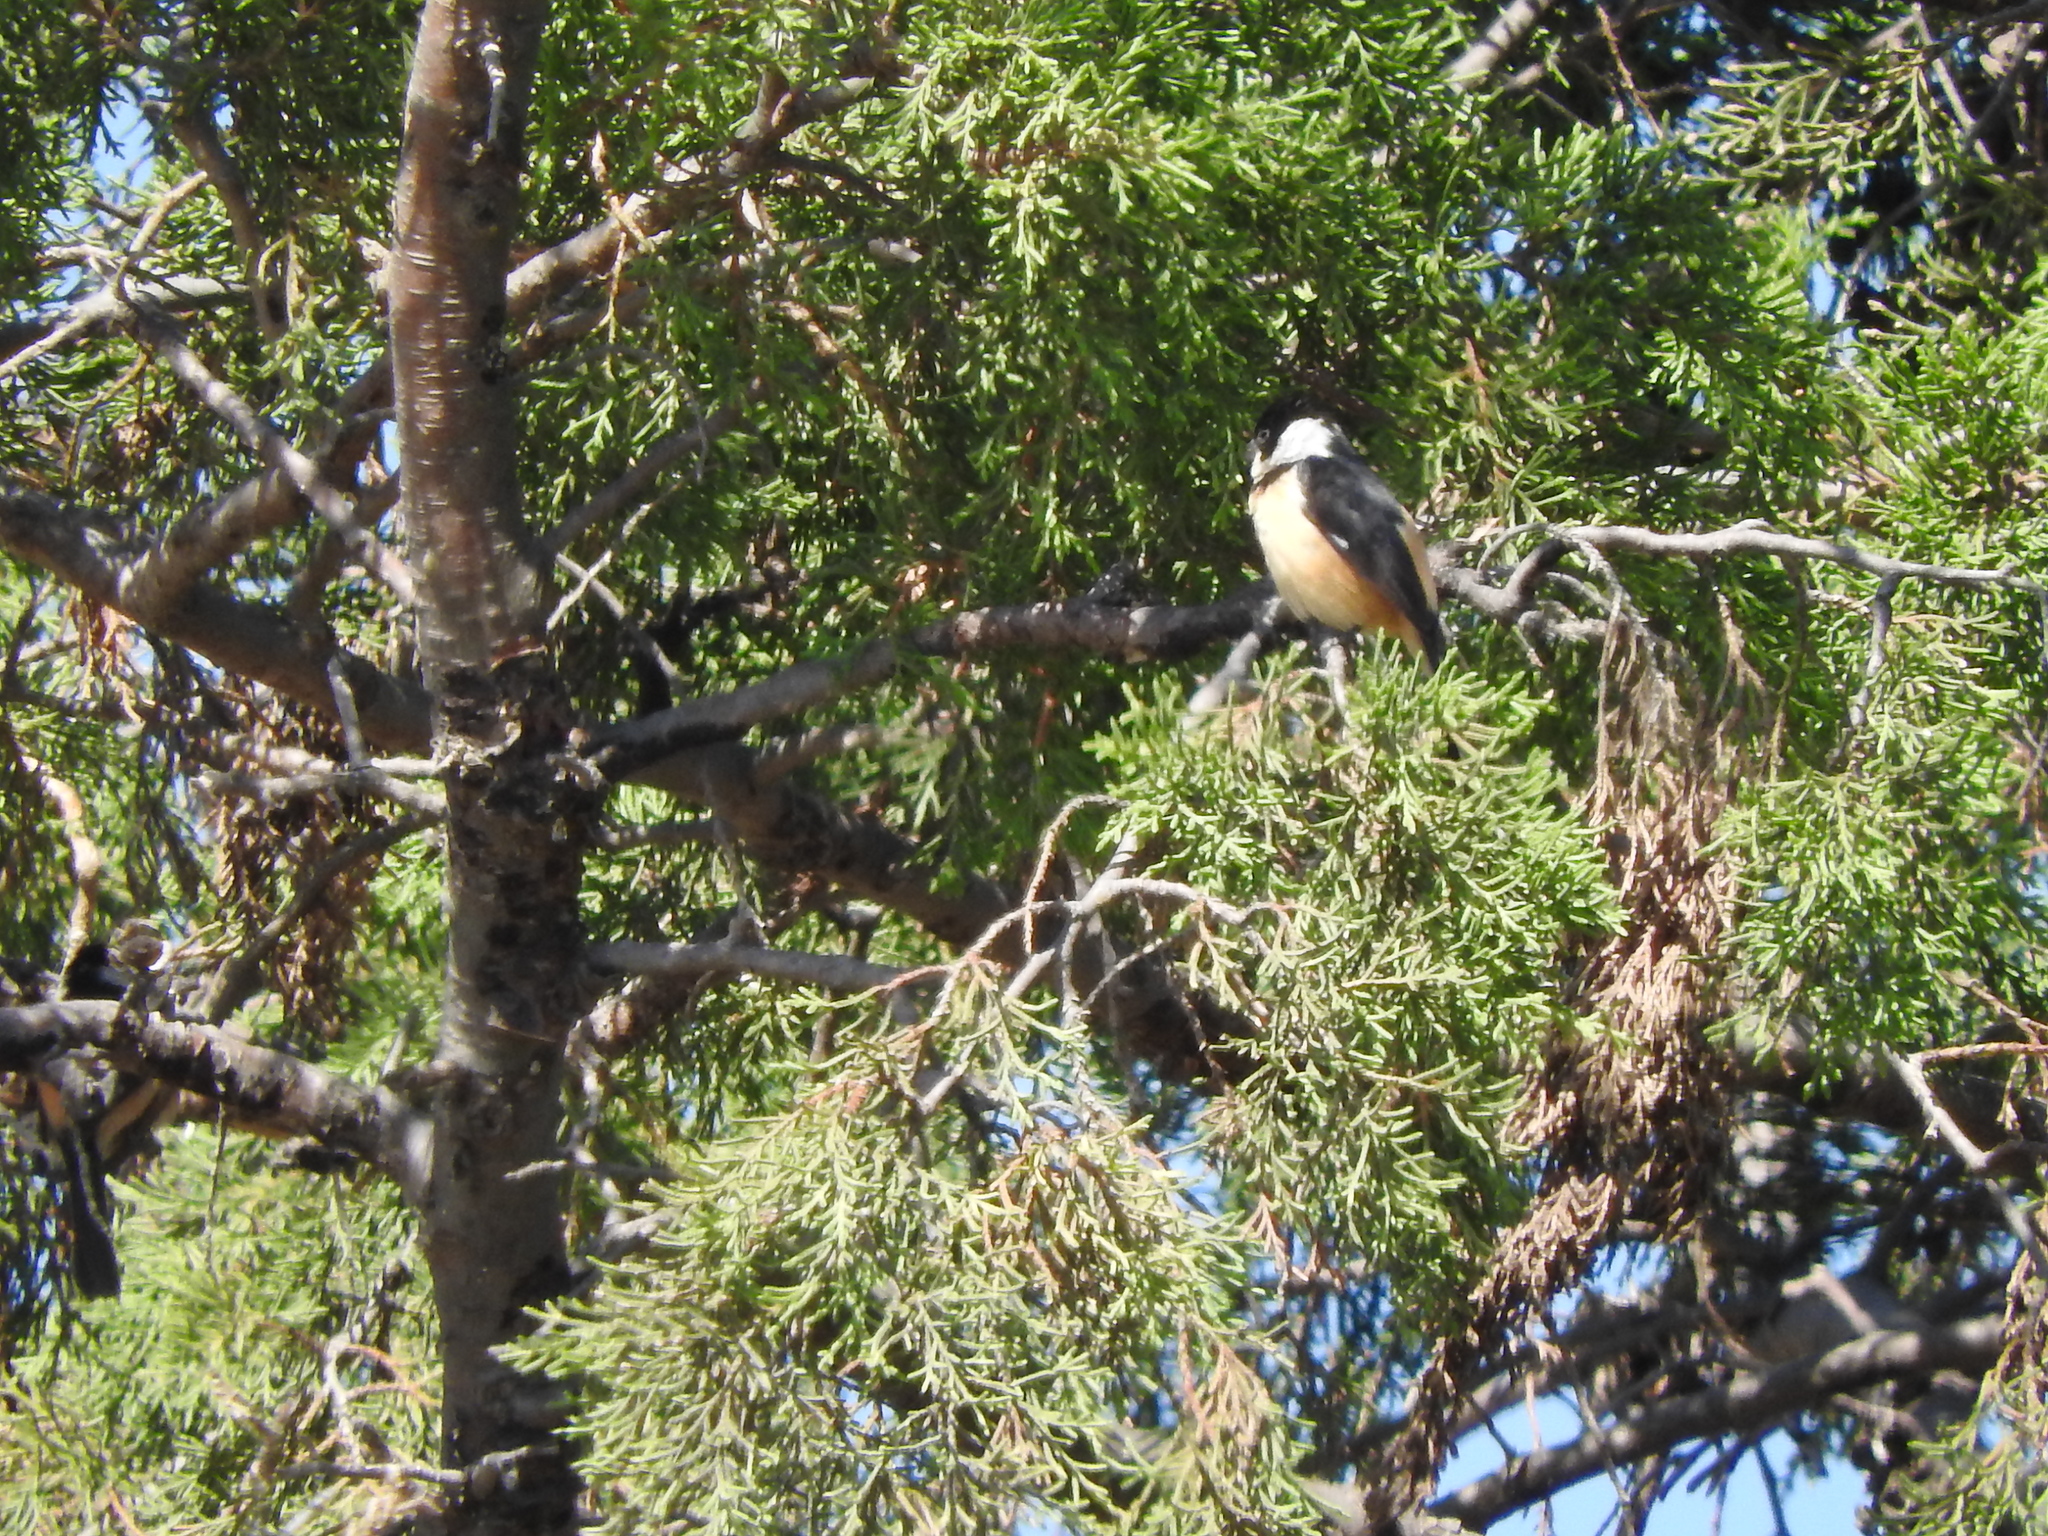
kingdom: Animalia
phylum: Chordata
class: Aves
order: Passeriformes
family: Thraupidae
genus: Sporophila
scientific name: Sporophila torqueola
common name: White-collared seedeater
